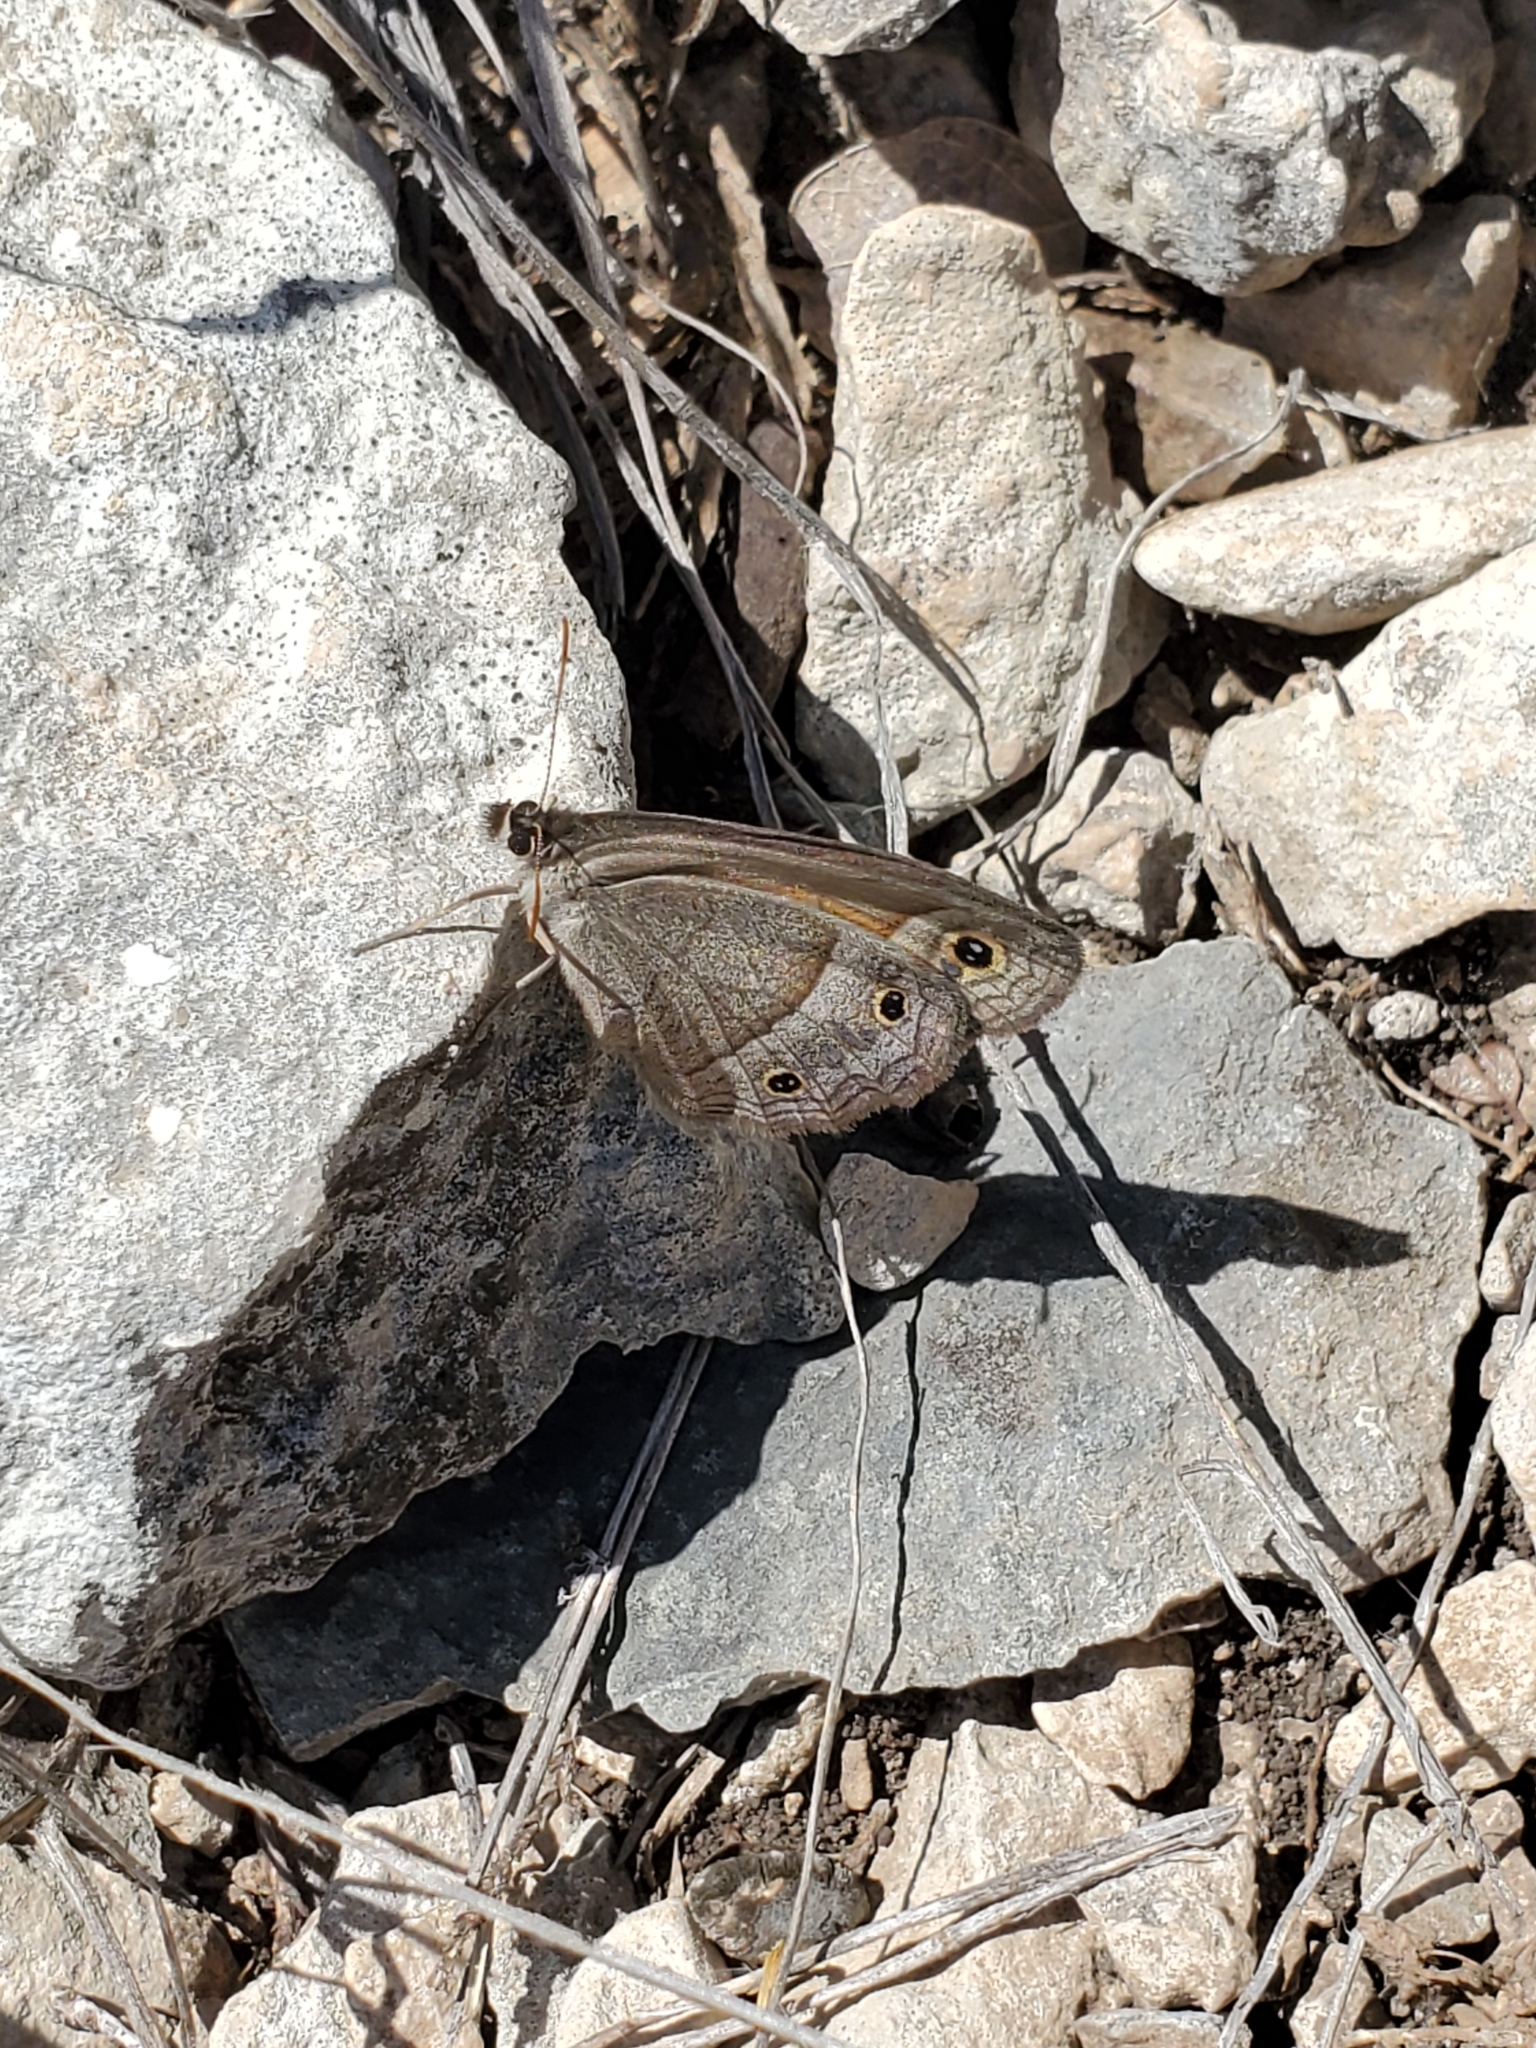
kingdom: Animalia
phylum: Arthropoda
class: Insecta
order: Lepidoptera
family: Nymphalidae
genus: Euptychia
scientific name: Euptychia Cissia rubricata
